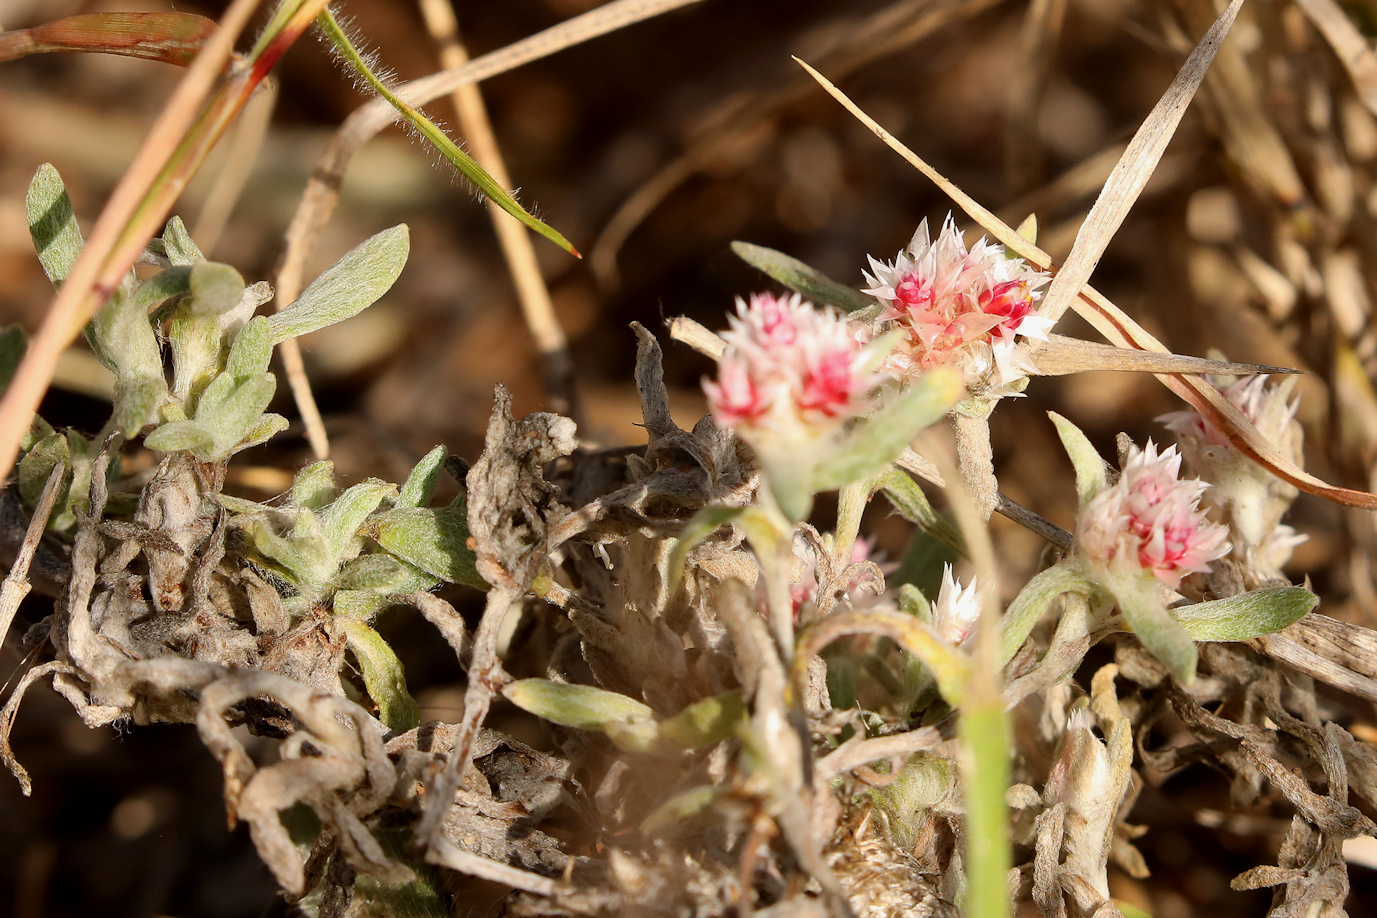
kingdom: Plantae
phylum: Tracheophyta
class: Magnoliopsida
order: Asterales
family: Asteraceae
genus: Helichrysum
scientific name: Helichrysum candolleanum
